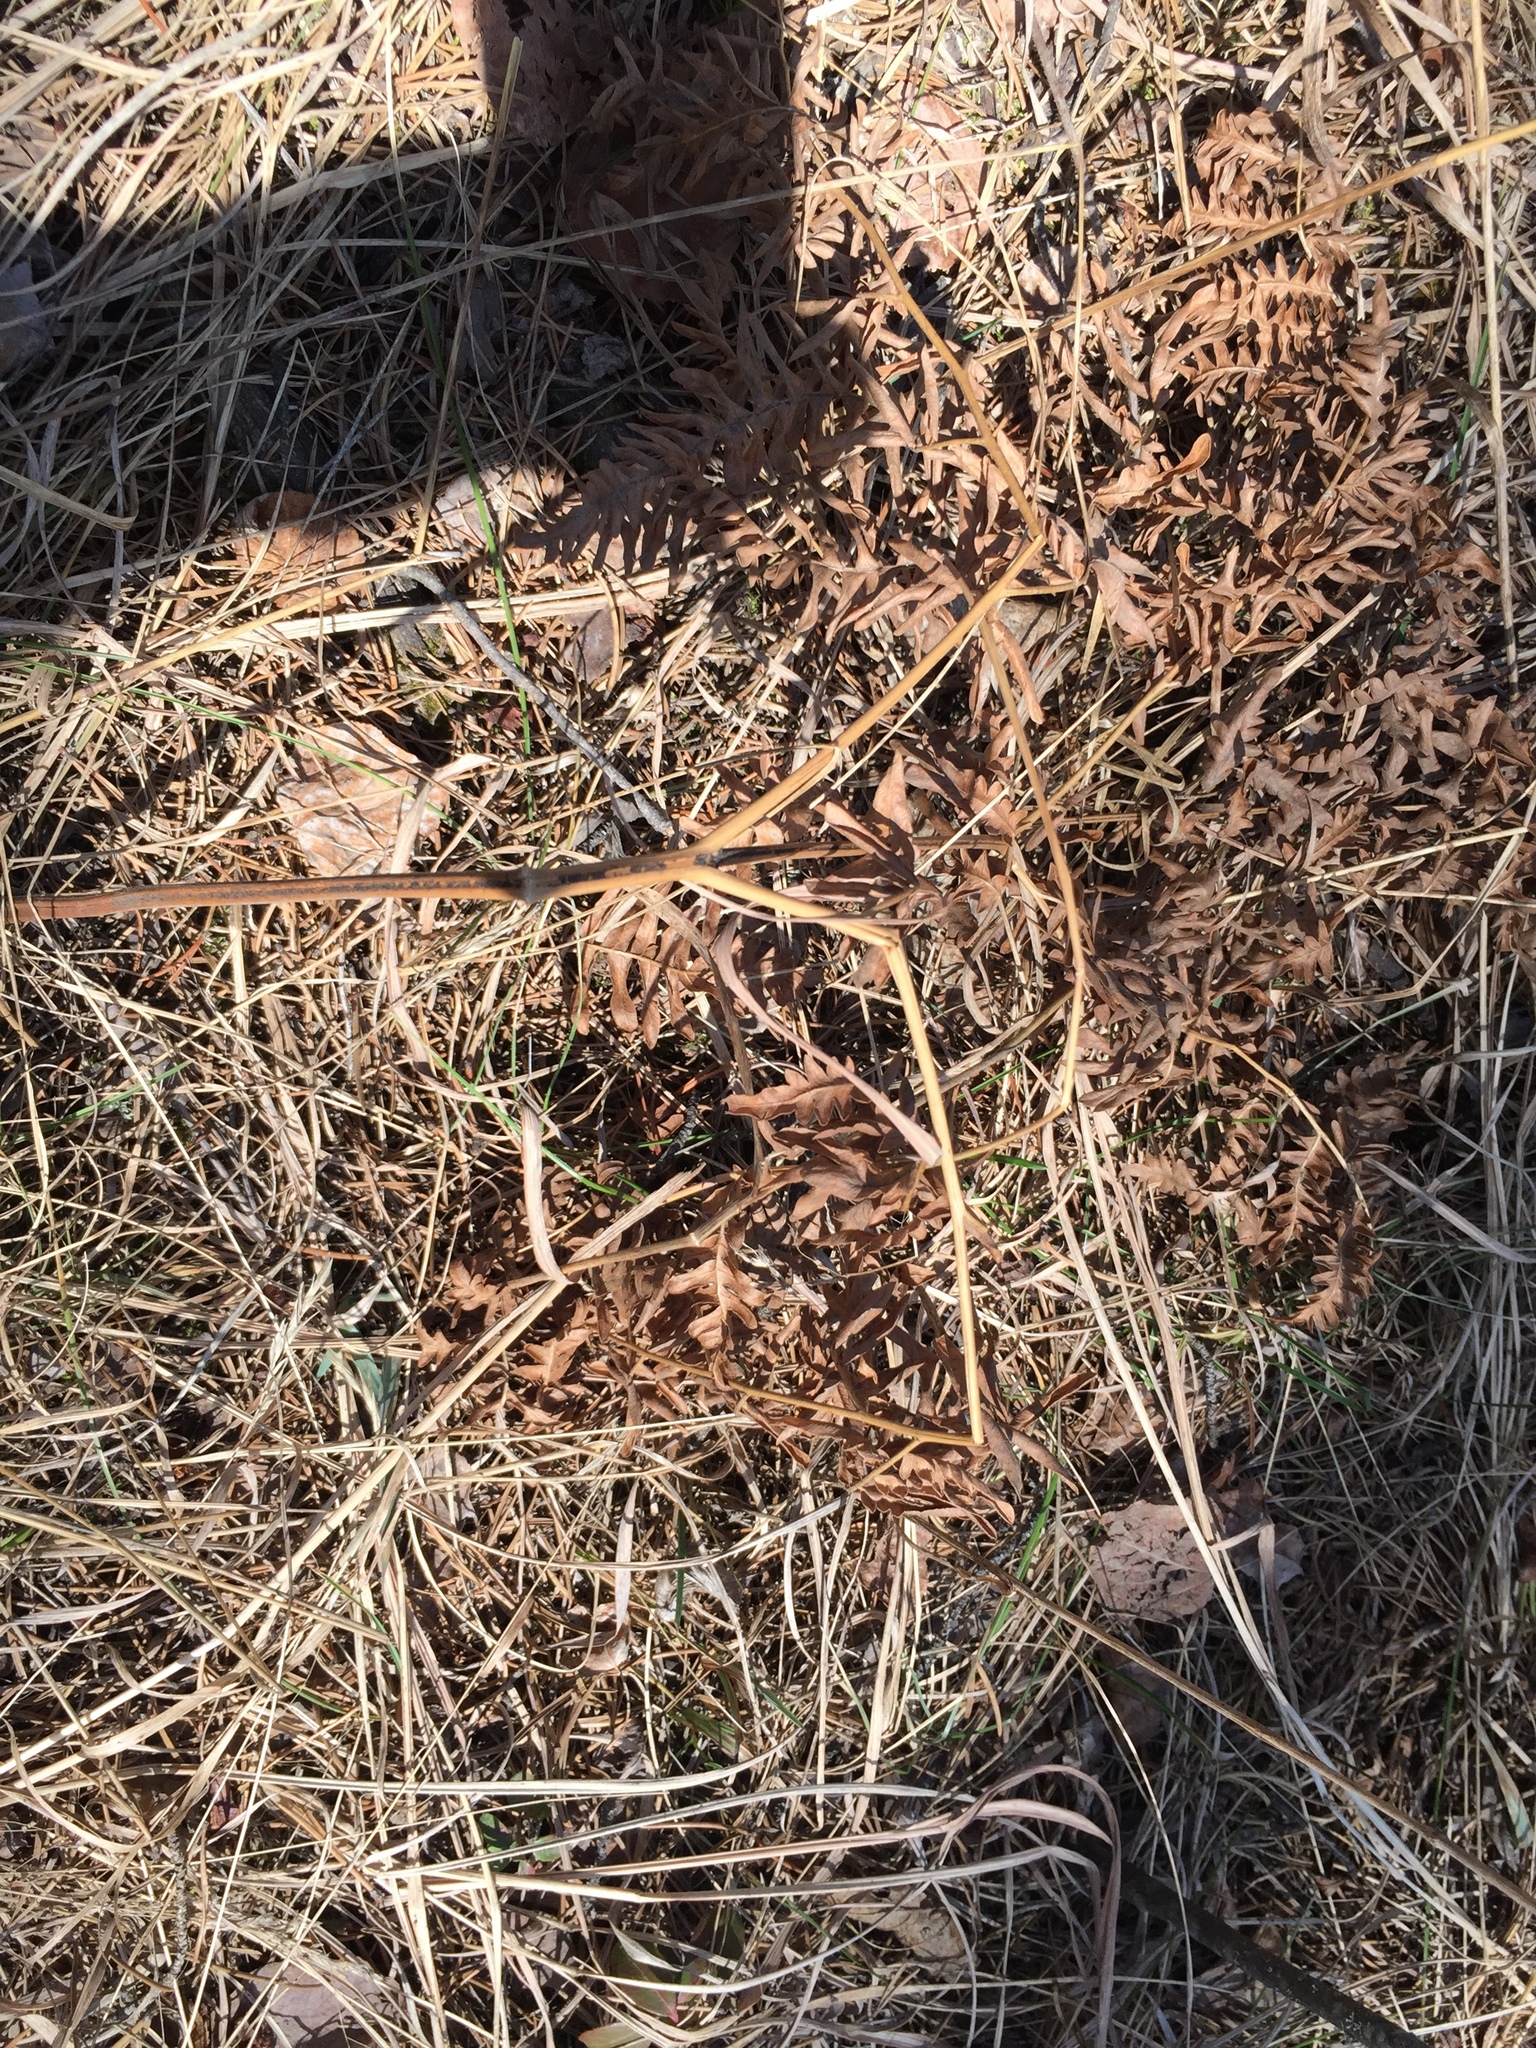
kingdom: Plantae
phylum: Tracheophyta
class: Polypodiopsida
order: Polypodiales
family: Dennstaedtiaceae
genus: Pteridium
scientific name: Pteridium aquilinum
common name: Bracken
